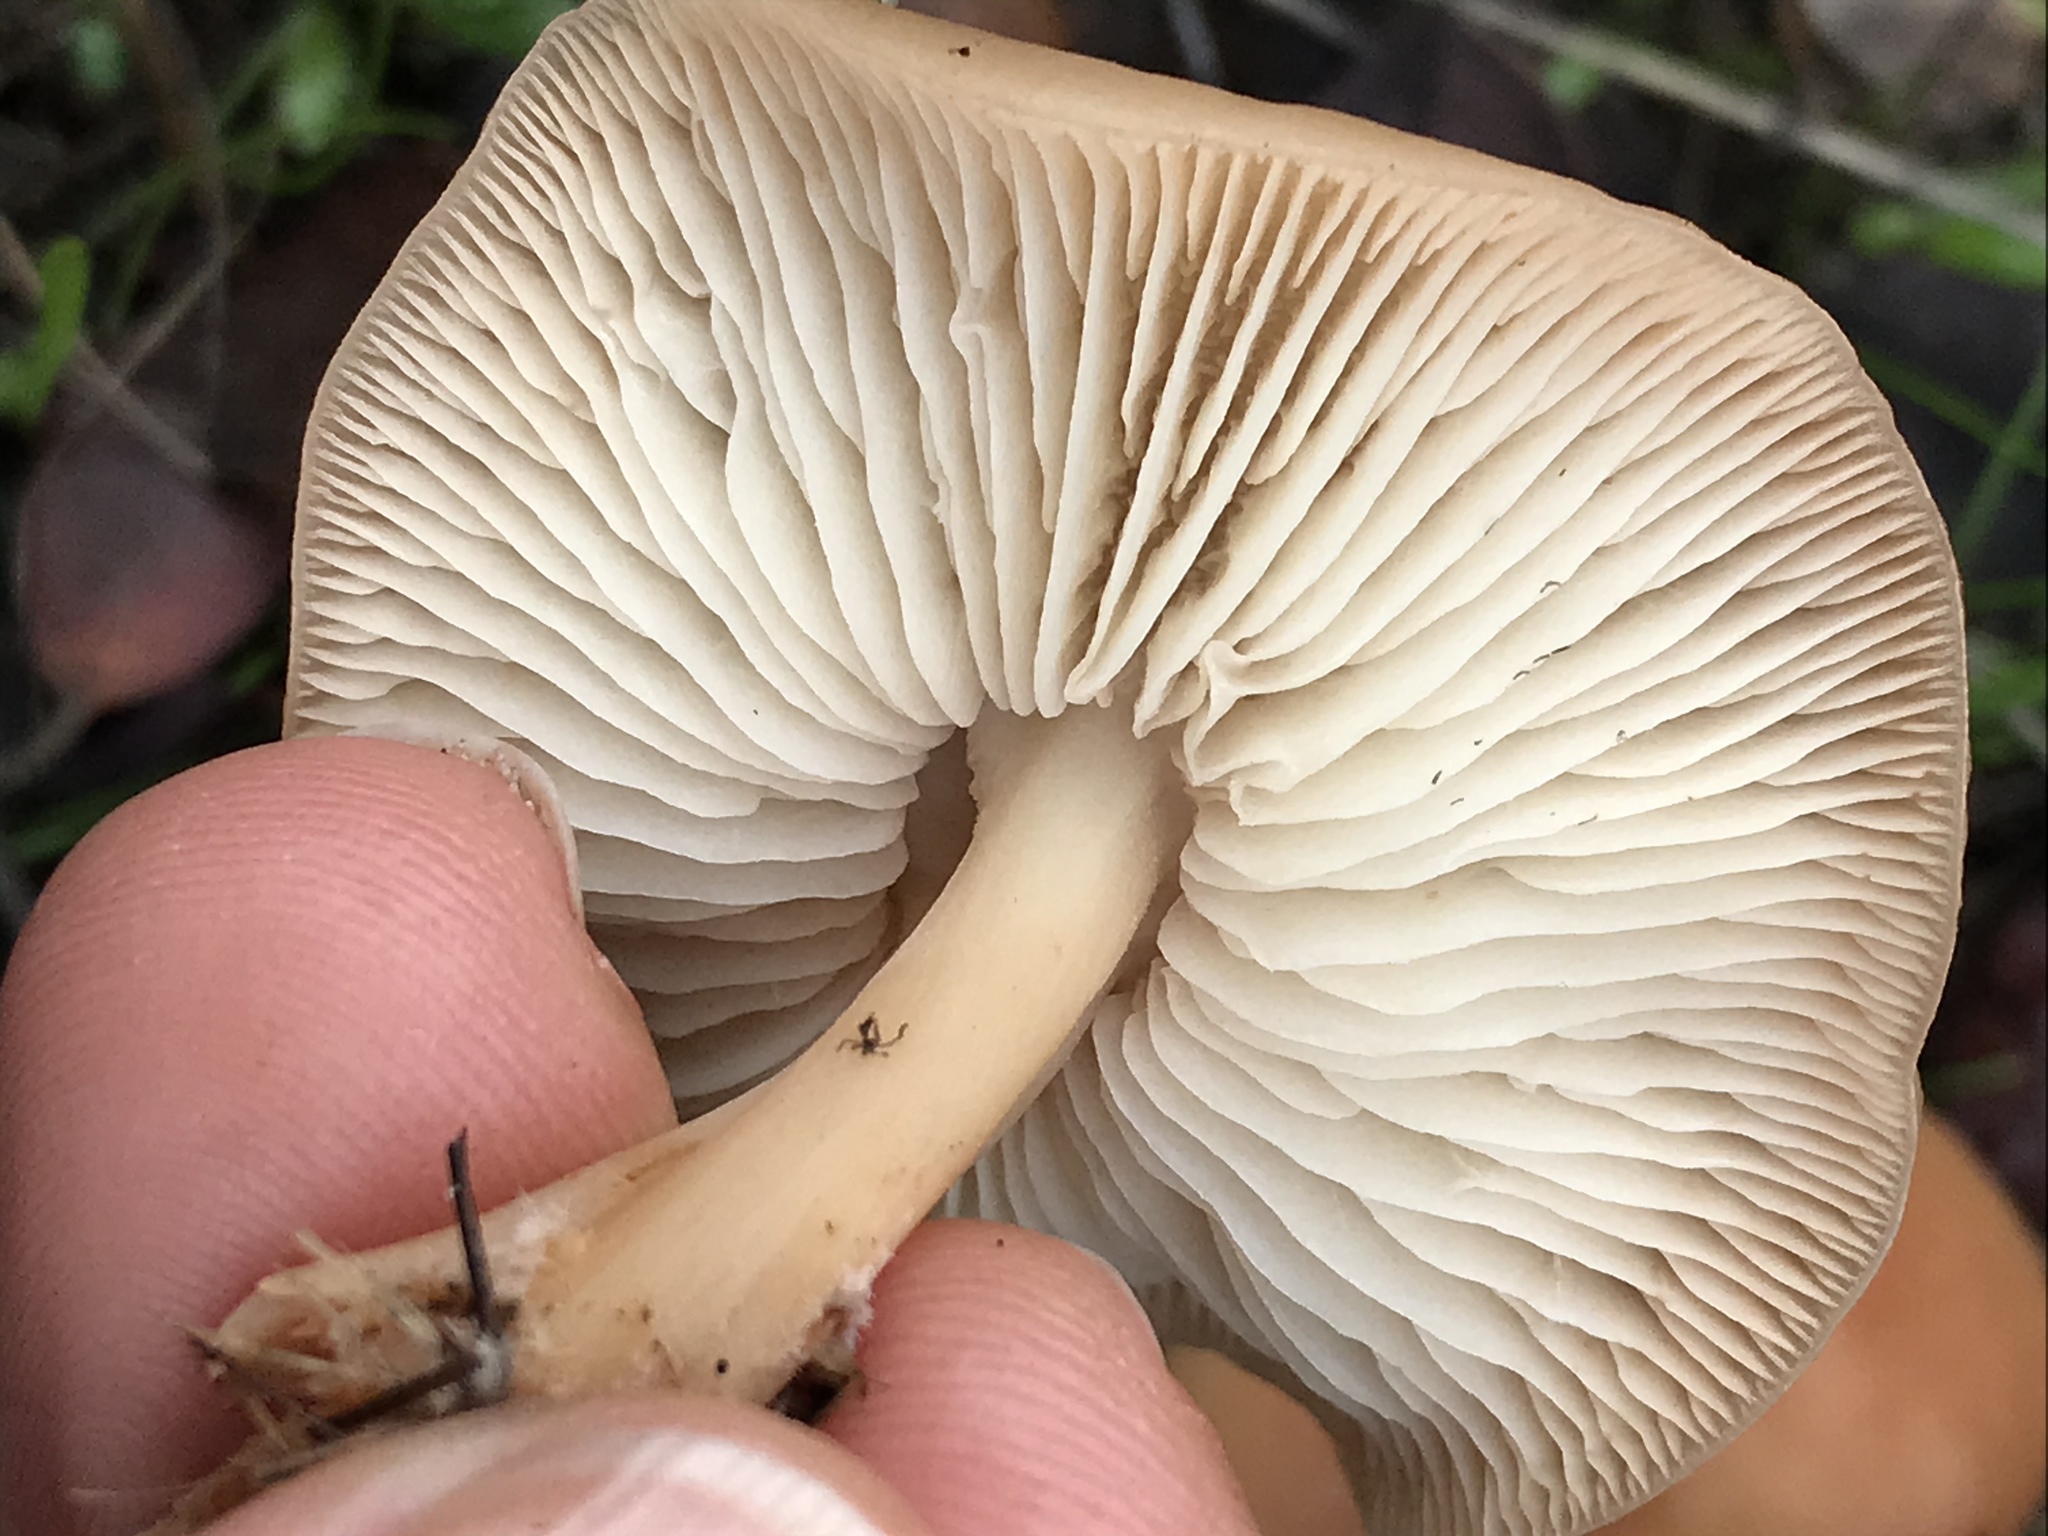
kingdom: Fungi
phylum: Basidiomycota
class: Agaricomycetes
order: Agaricales
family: Omphalotaceae
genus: Gymnopus
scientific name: Gymnopus dryophilus
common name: Penny top
